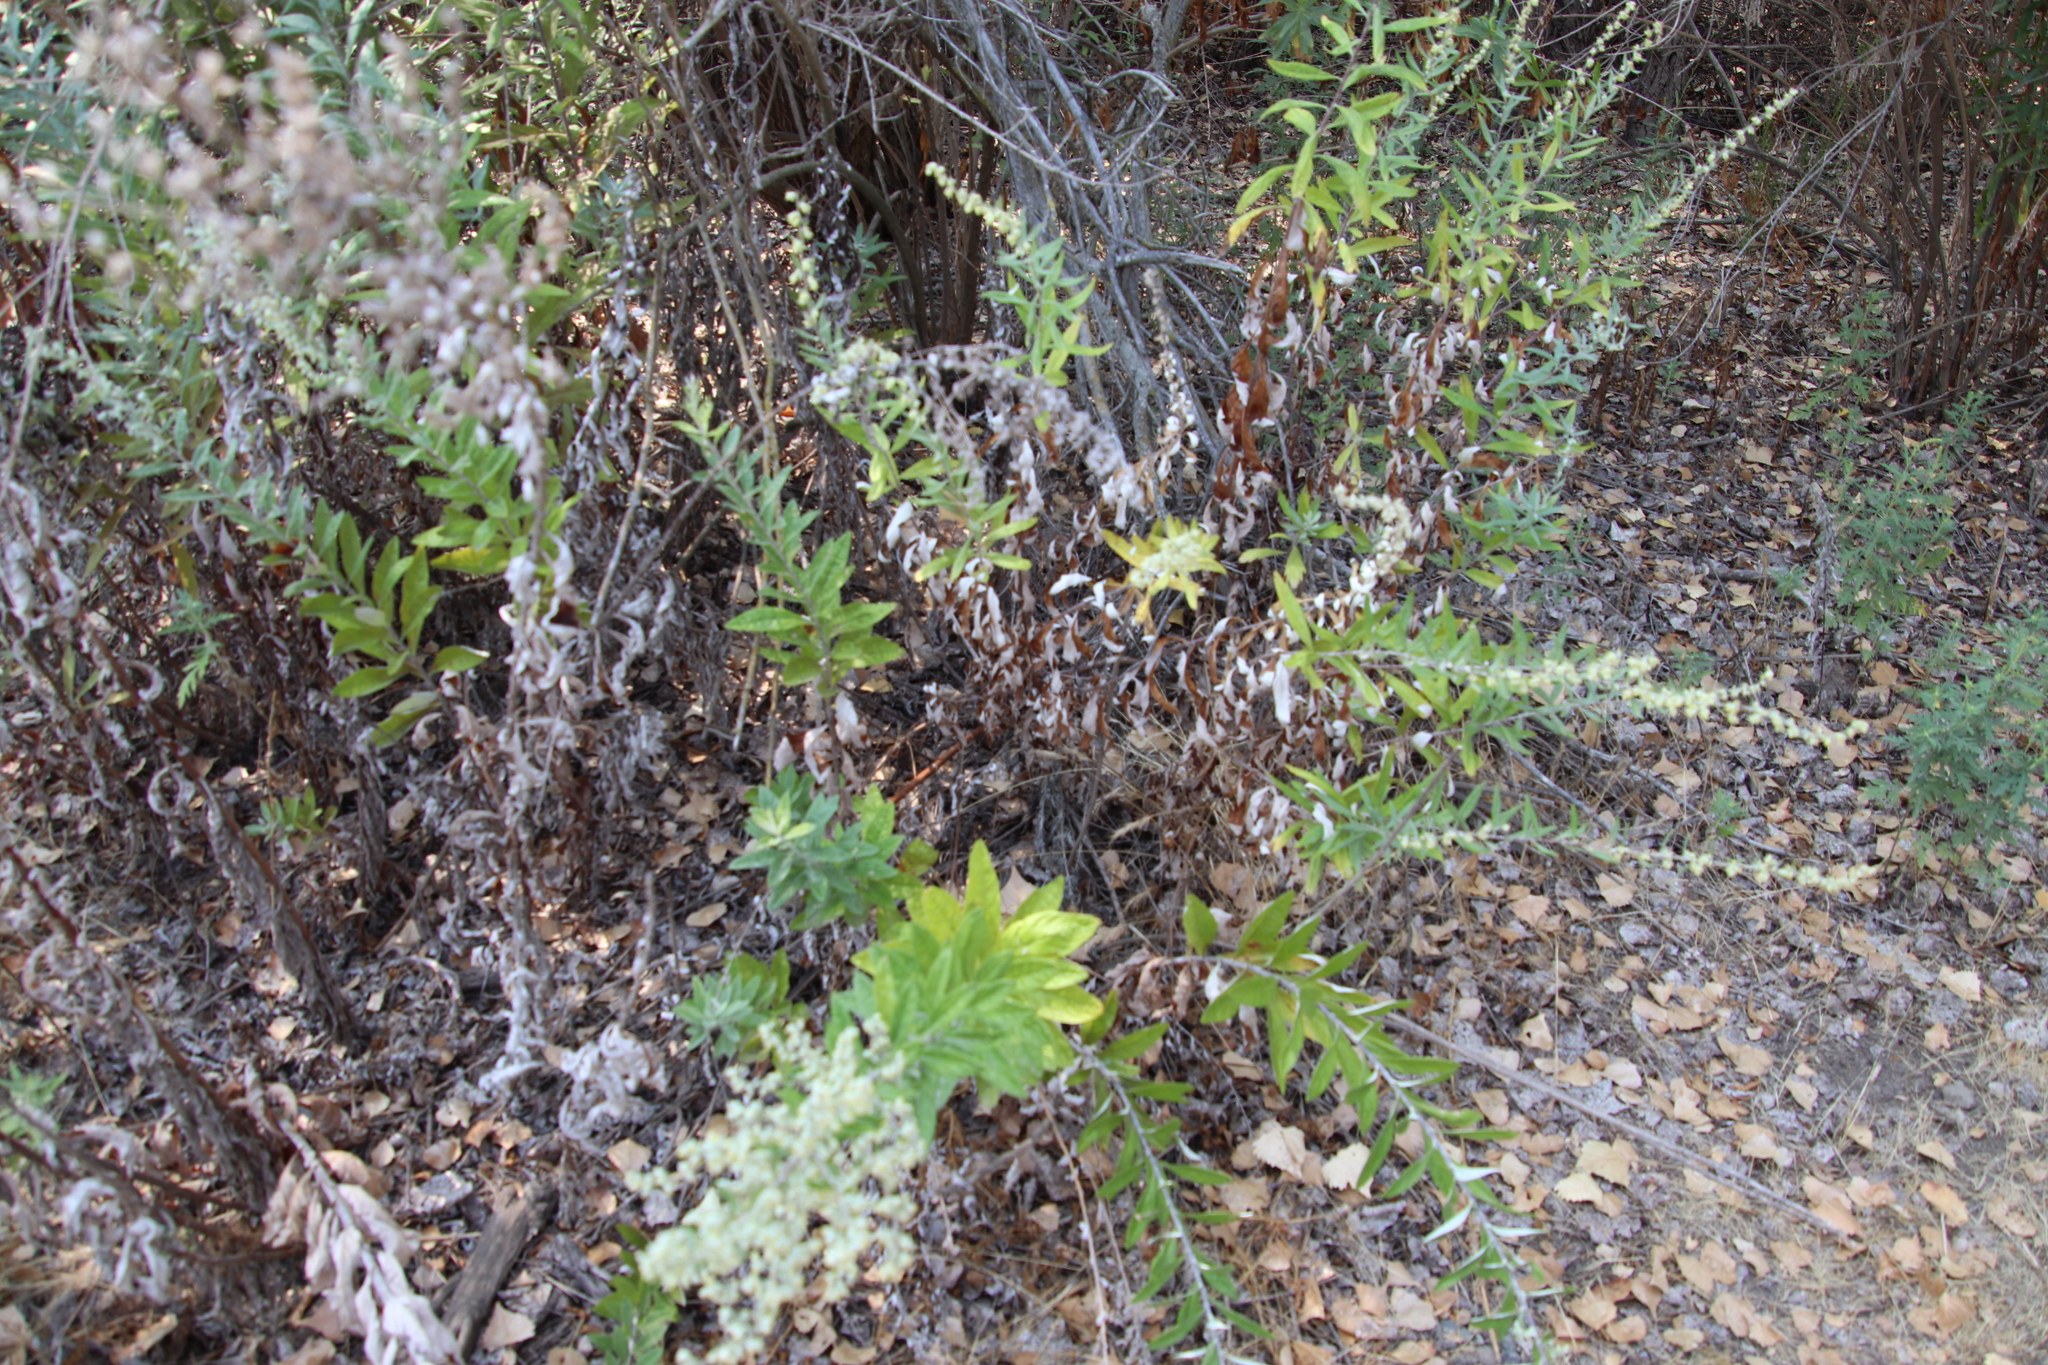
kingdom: Plantae
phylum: Tracheophyta
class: Magnoliopsida
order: Asterales
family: Asteraceae
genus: Artemisia
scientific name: Artemisia douglasiana
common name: Northwest mugwort
